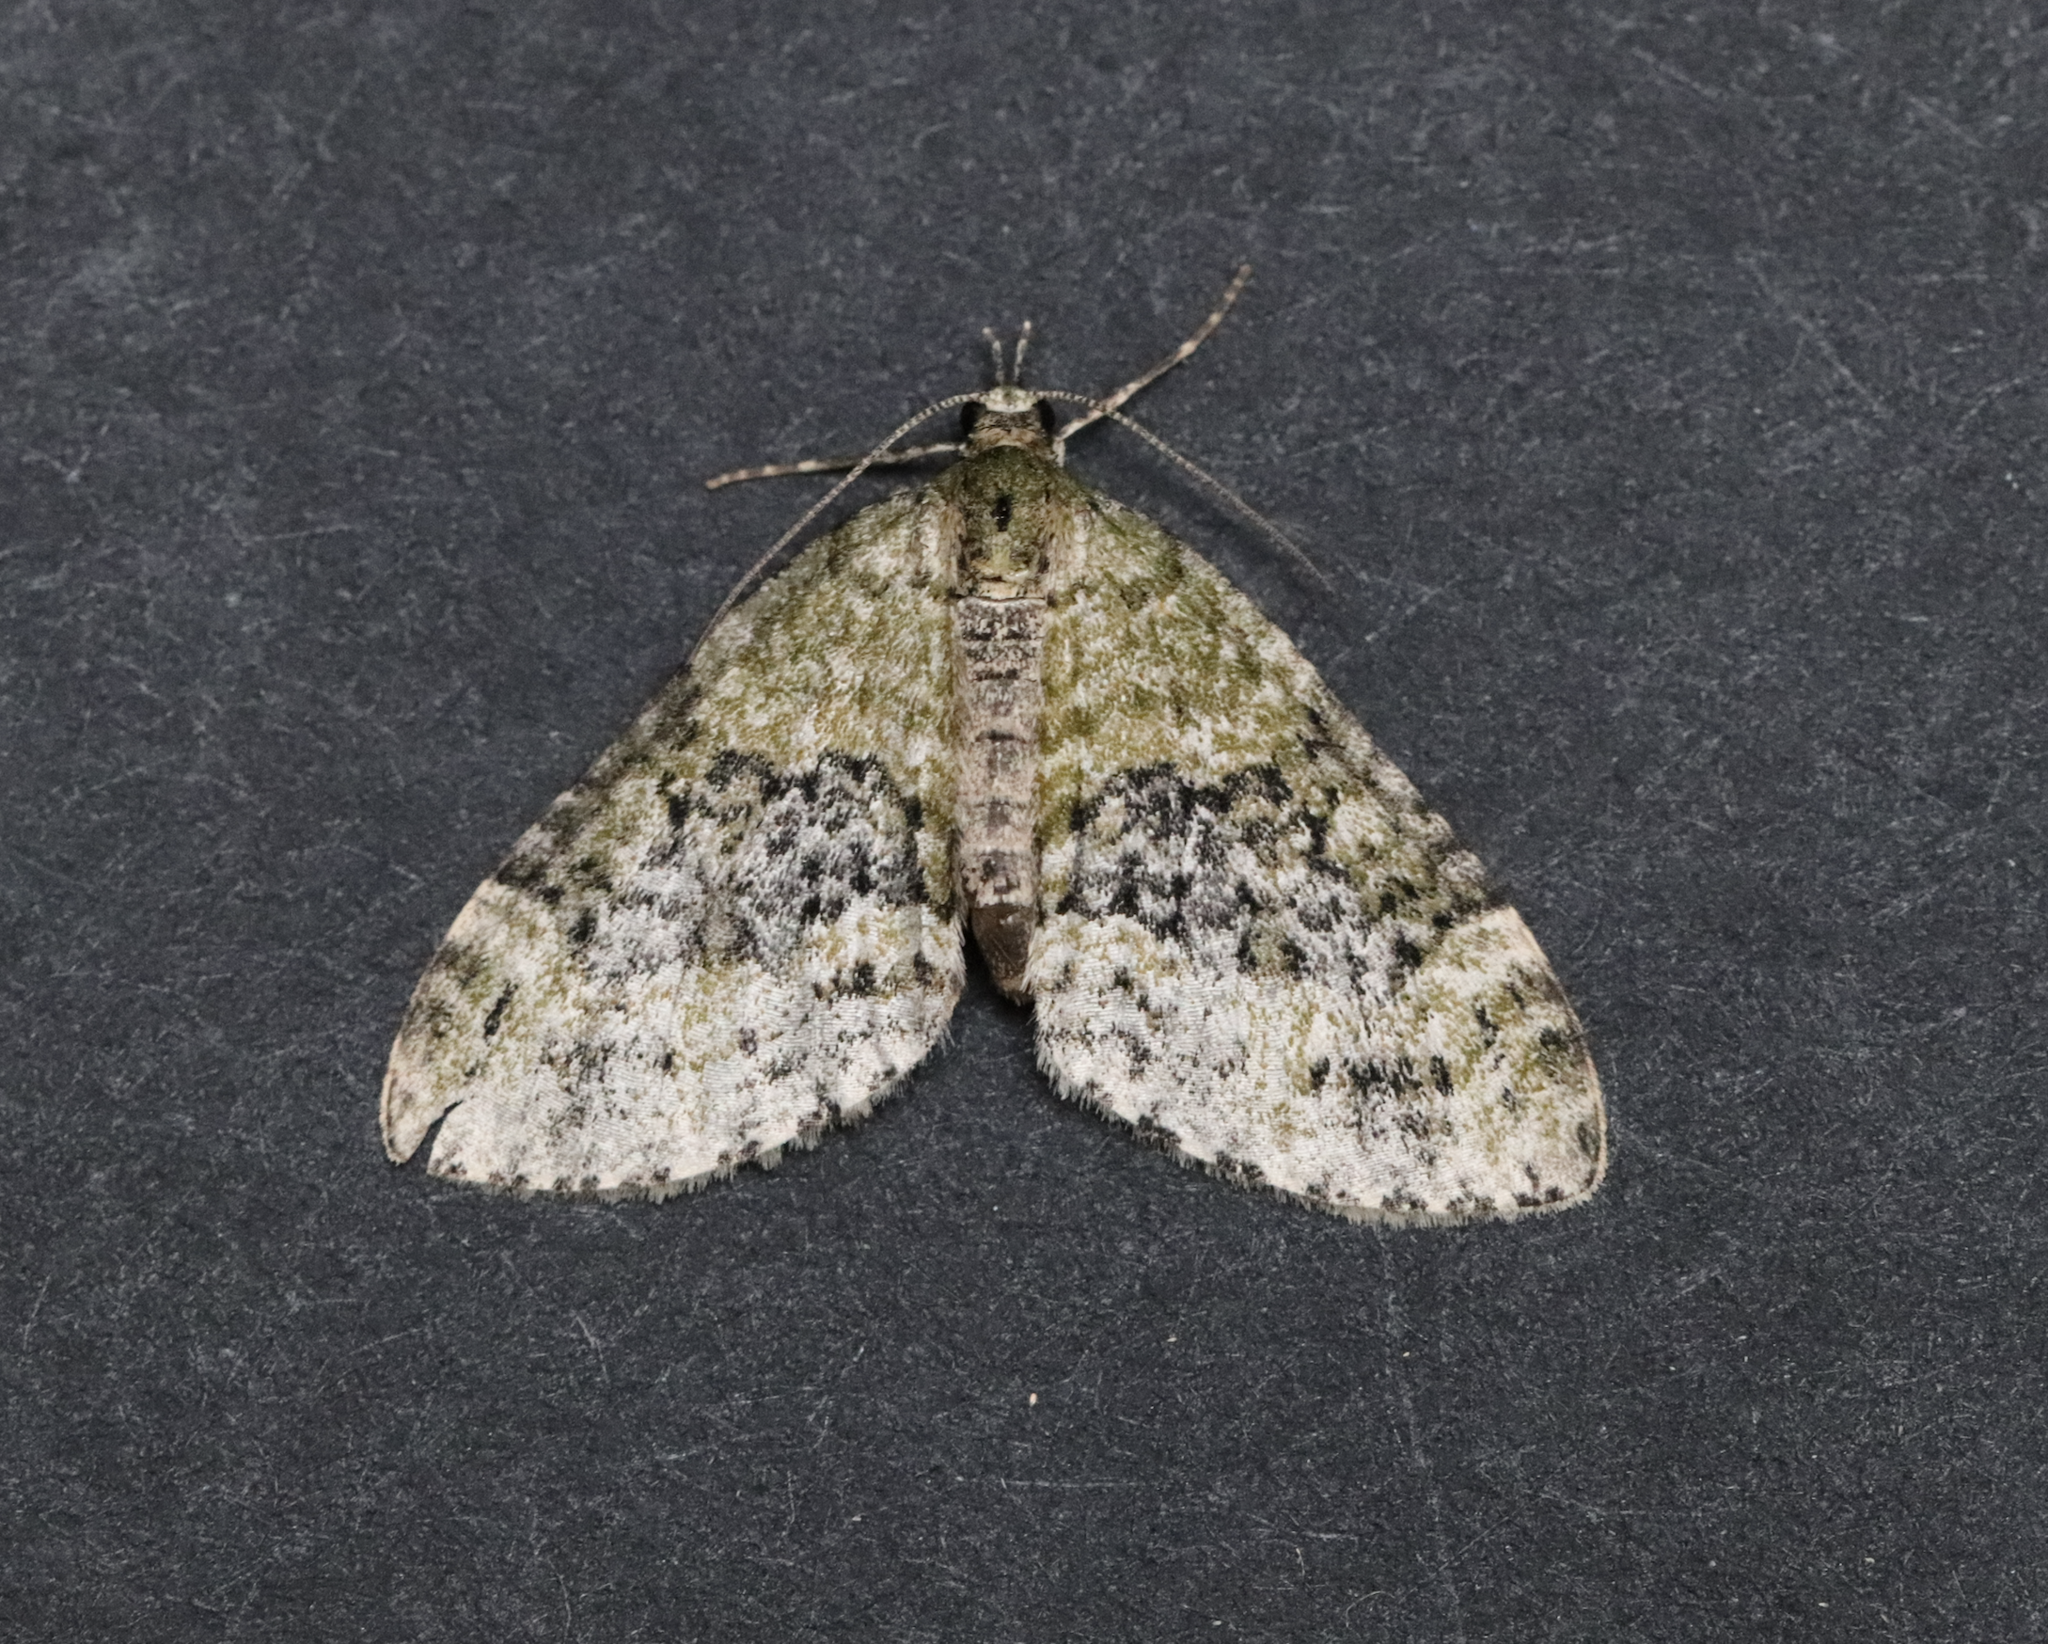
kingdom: Animalia
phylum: Arthropoda
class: Insecta
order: Lepidoptera
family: Geometridae
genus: Acasis
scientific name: Acasis viretata
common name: Yellow-barred brindle
